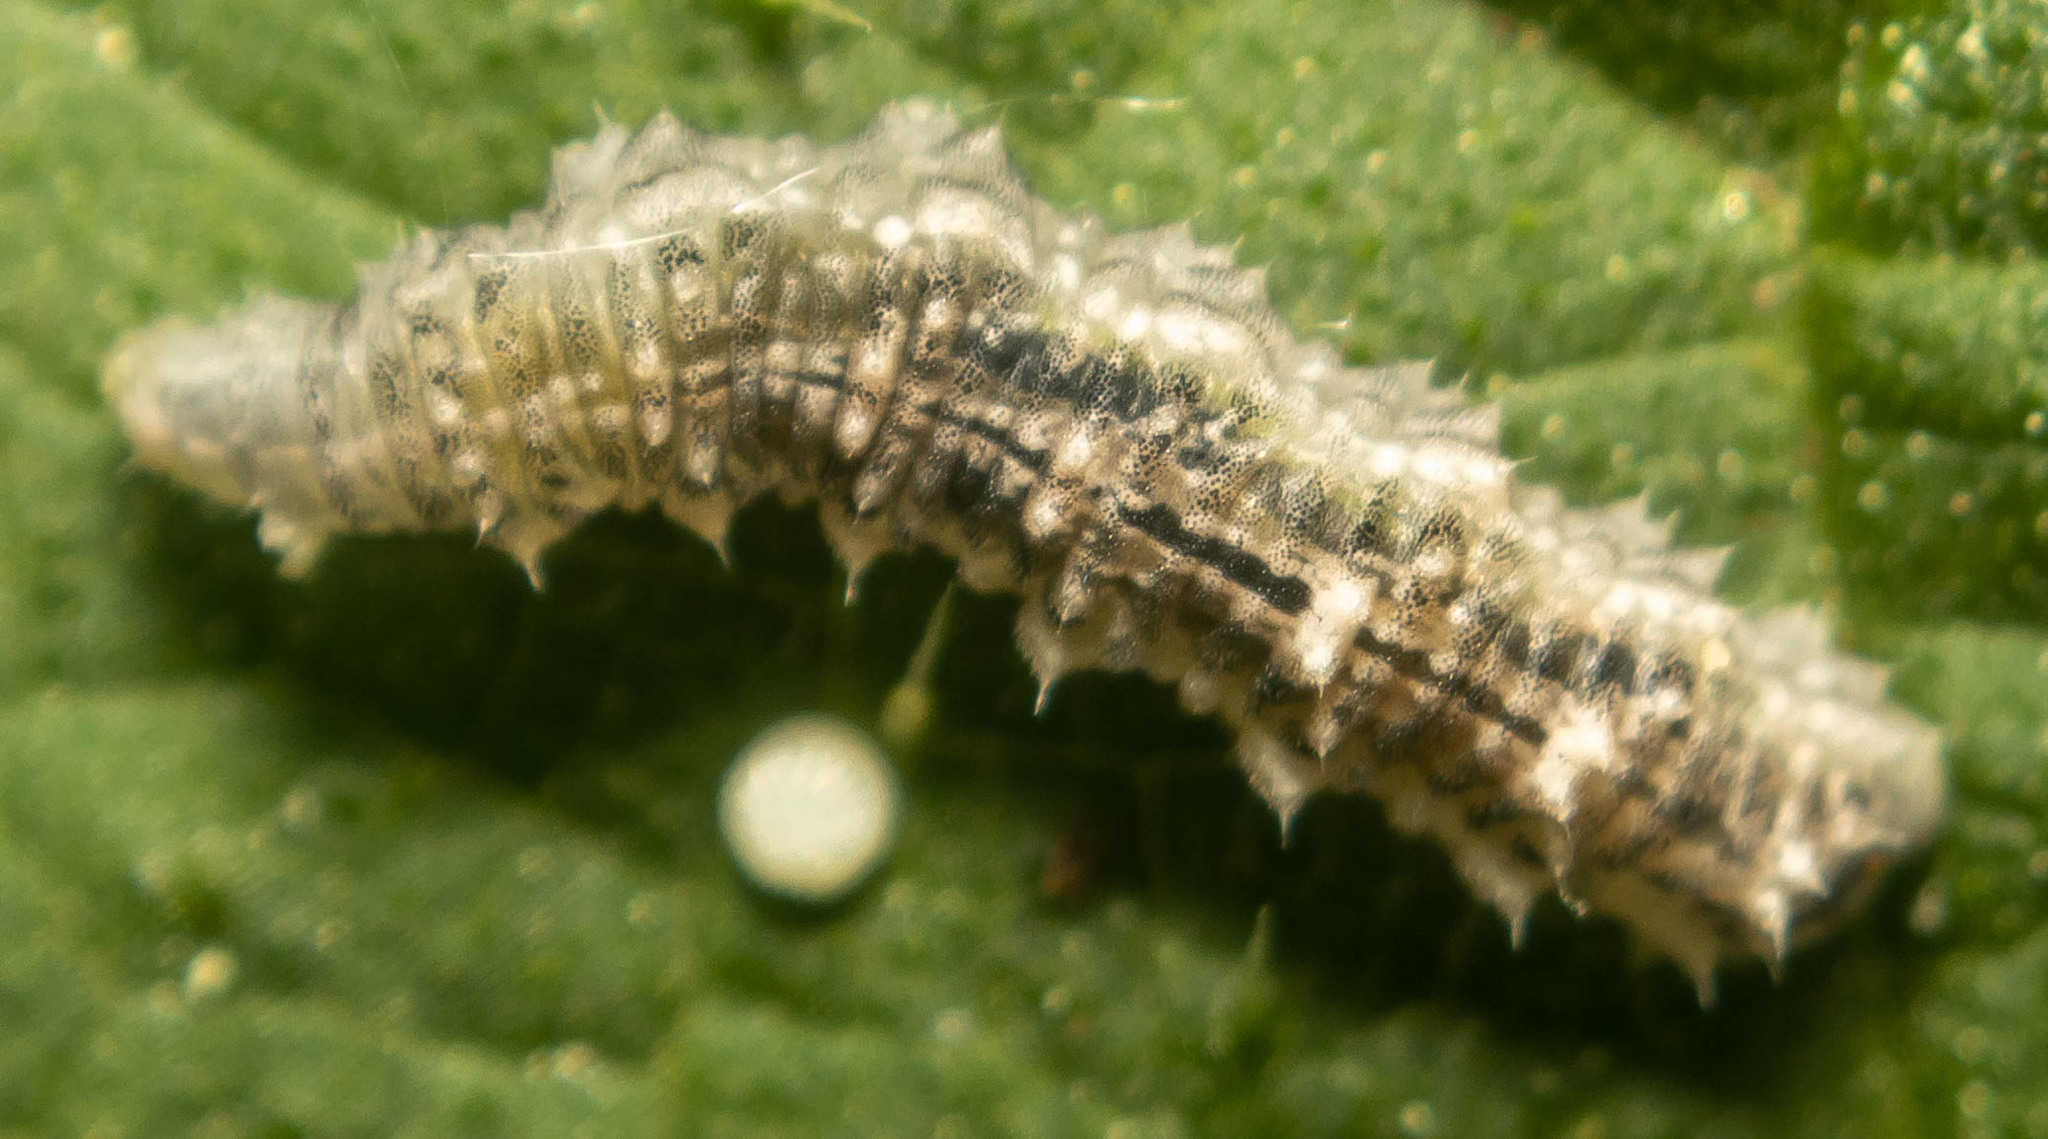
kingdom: Animalia
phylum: Arthropoda
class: Insecta
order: Diptera
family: Syrphidae
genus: Eupeodes
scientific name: Eupeodes
